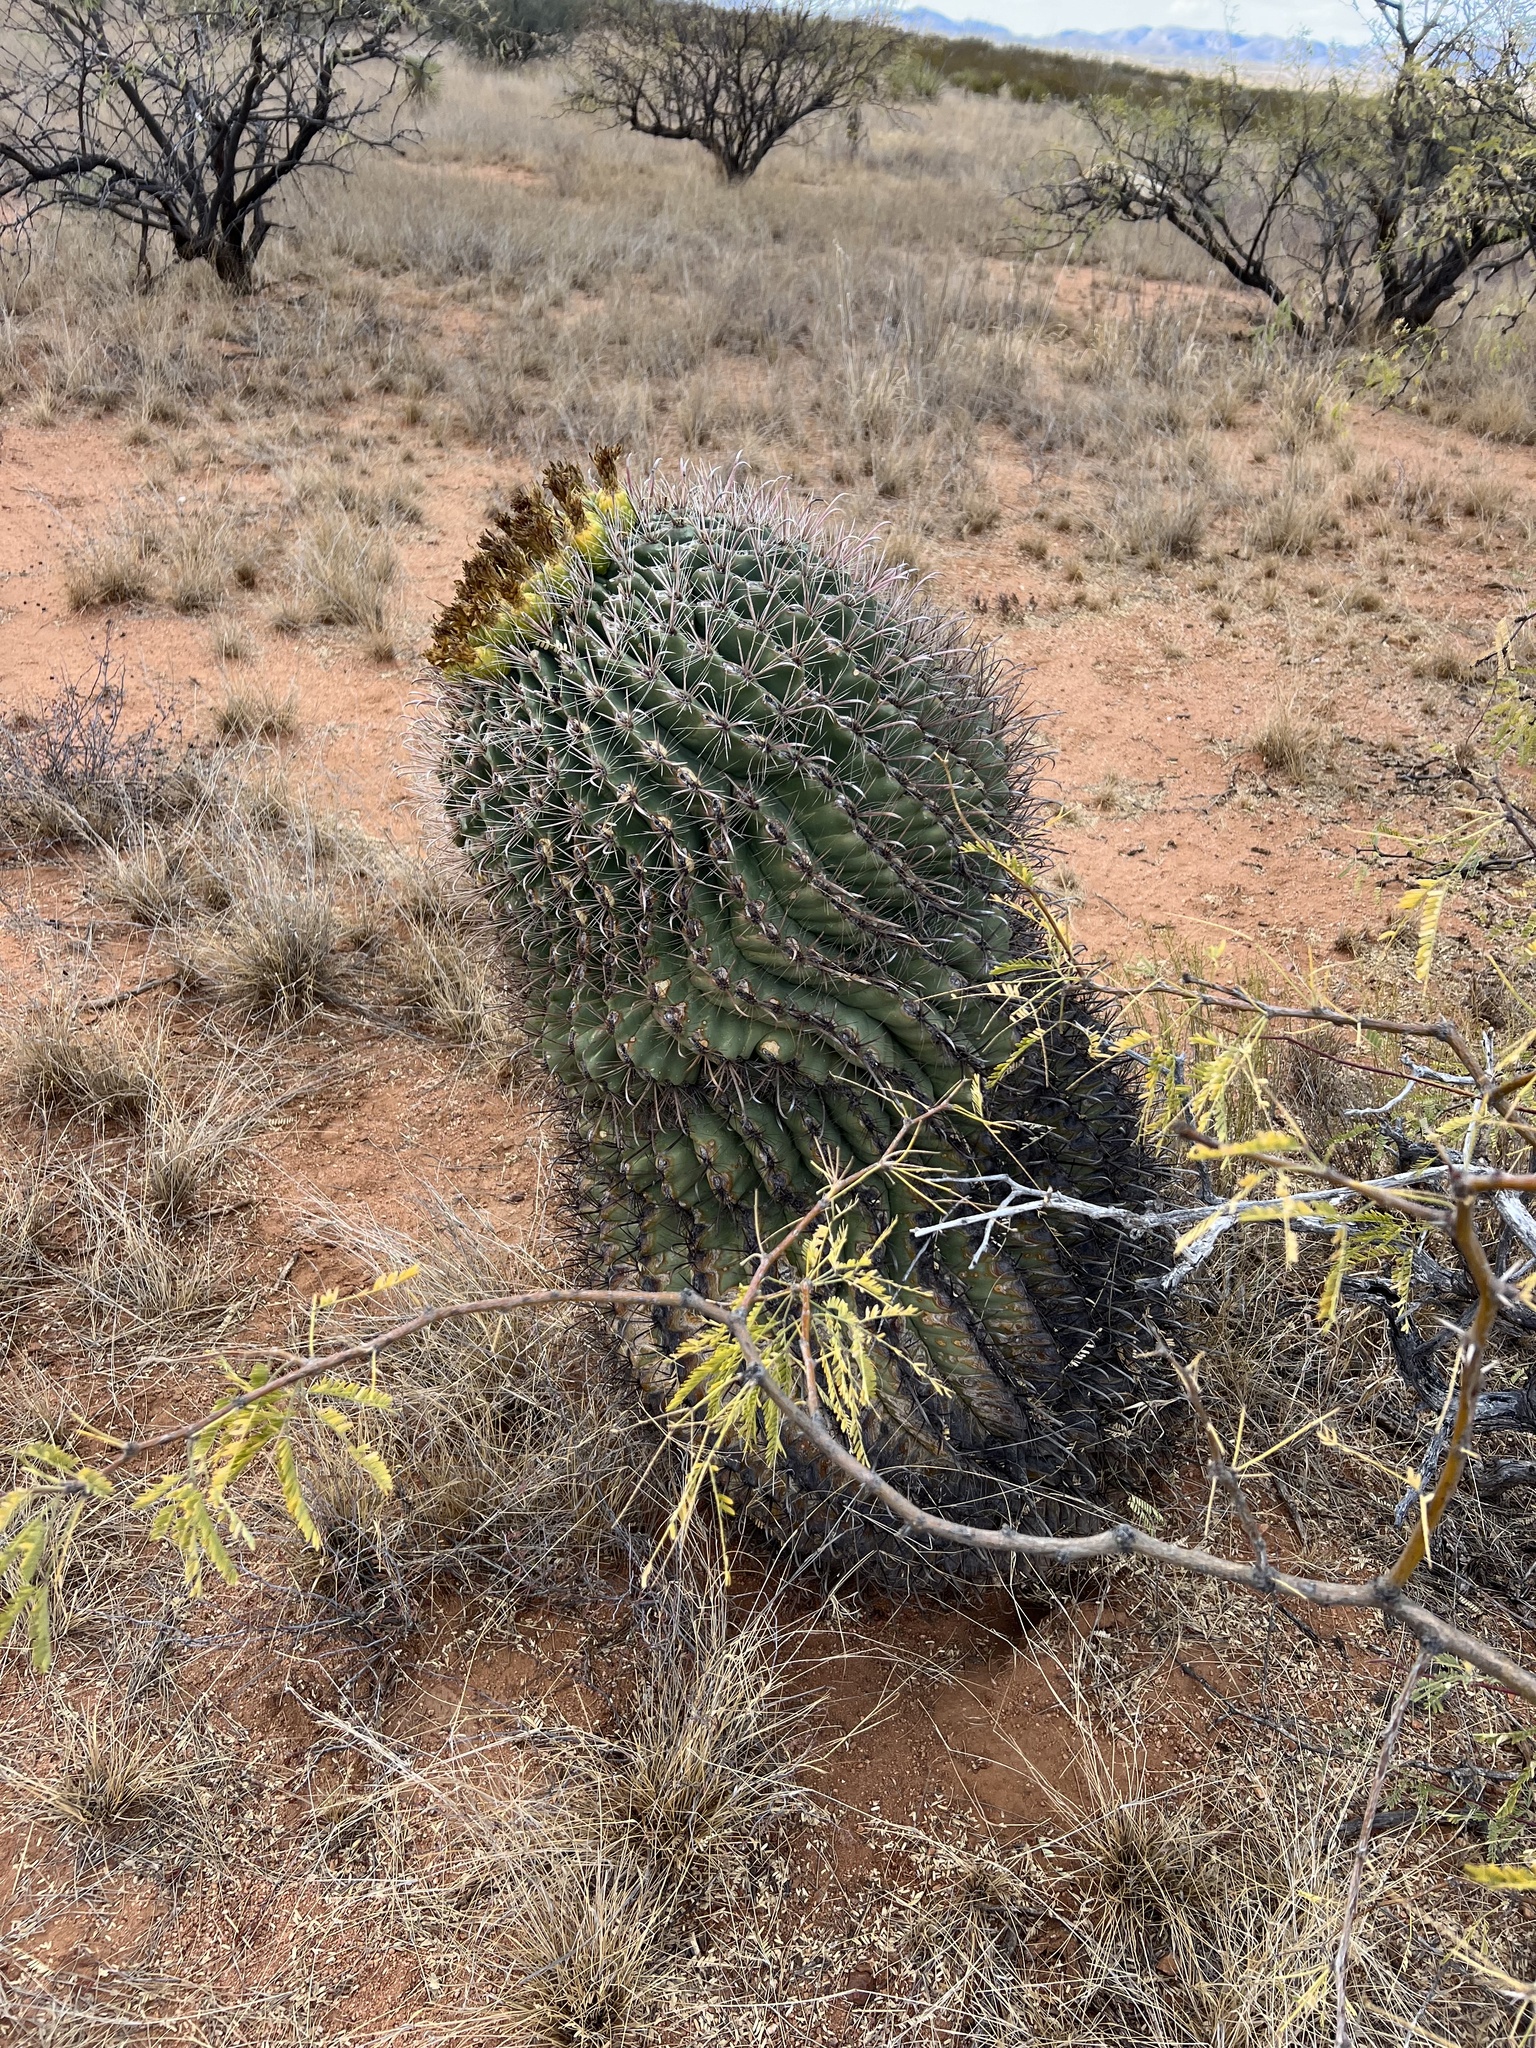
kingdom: Plantae
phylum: Tracheophyta
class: Magnoliopsida
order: Caryophyllales
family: Cactaceae
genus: Ferocactus
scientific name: Ferocactus wislizeni
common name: Candy barrel cactus
